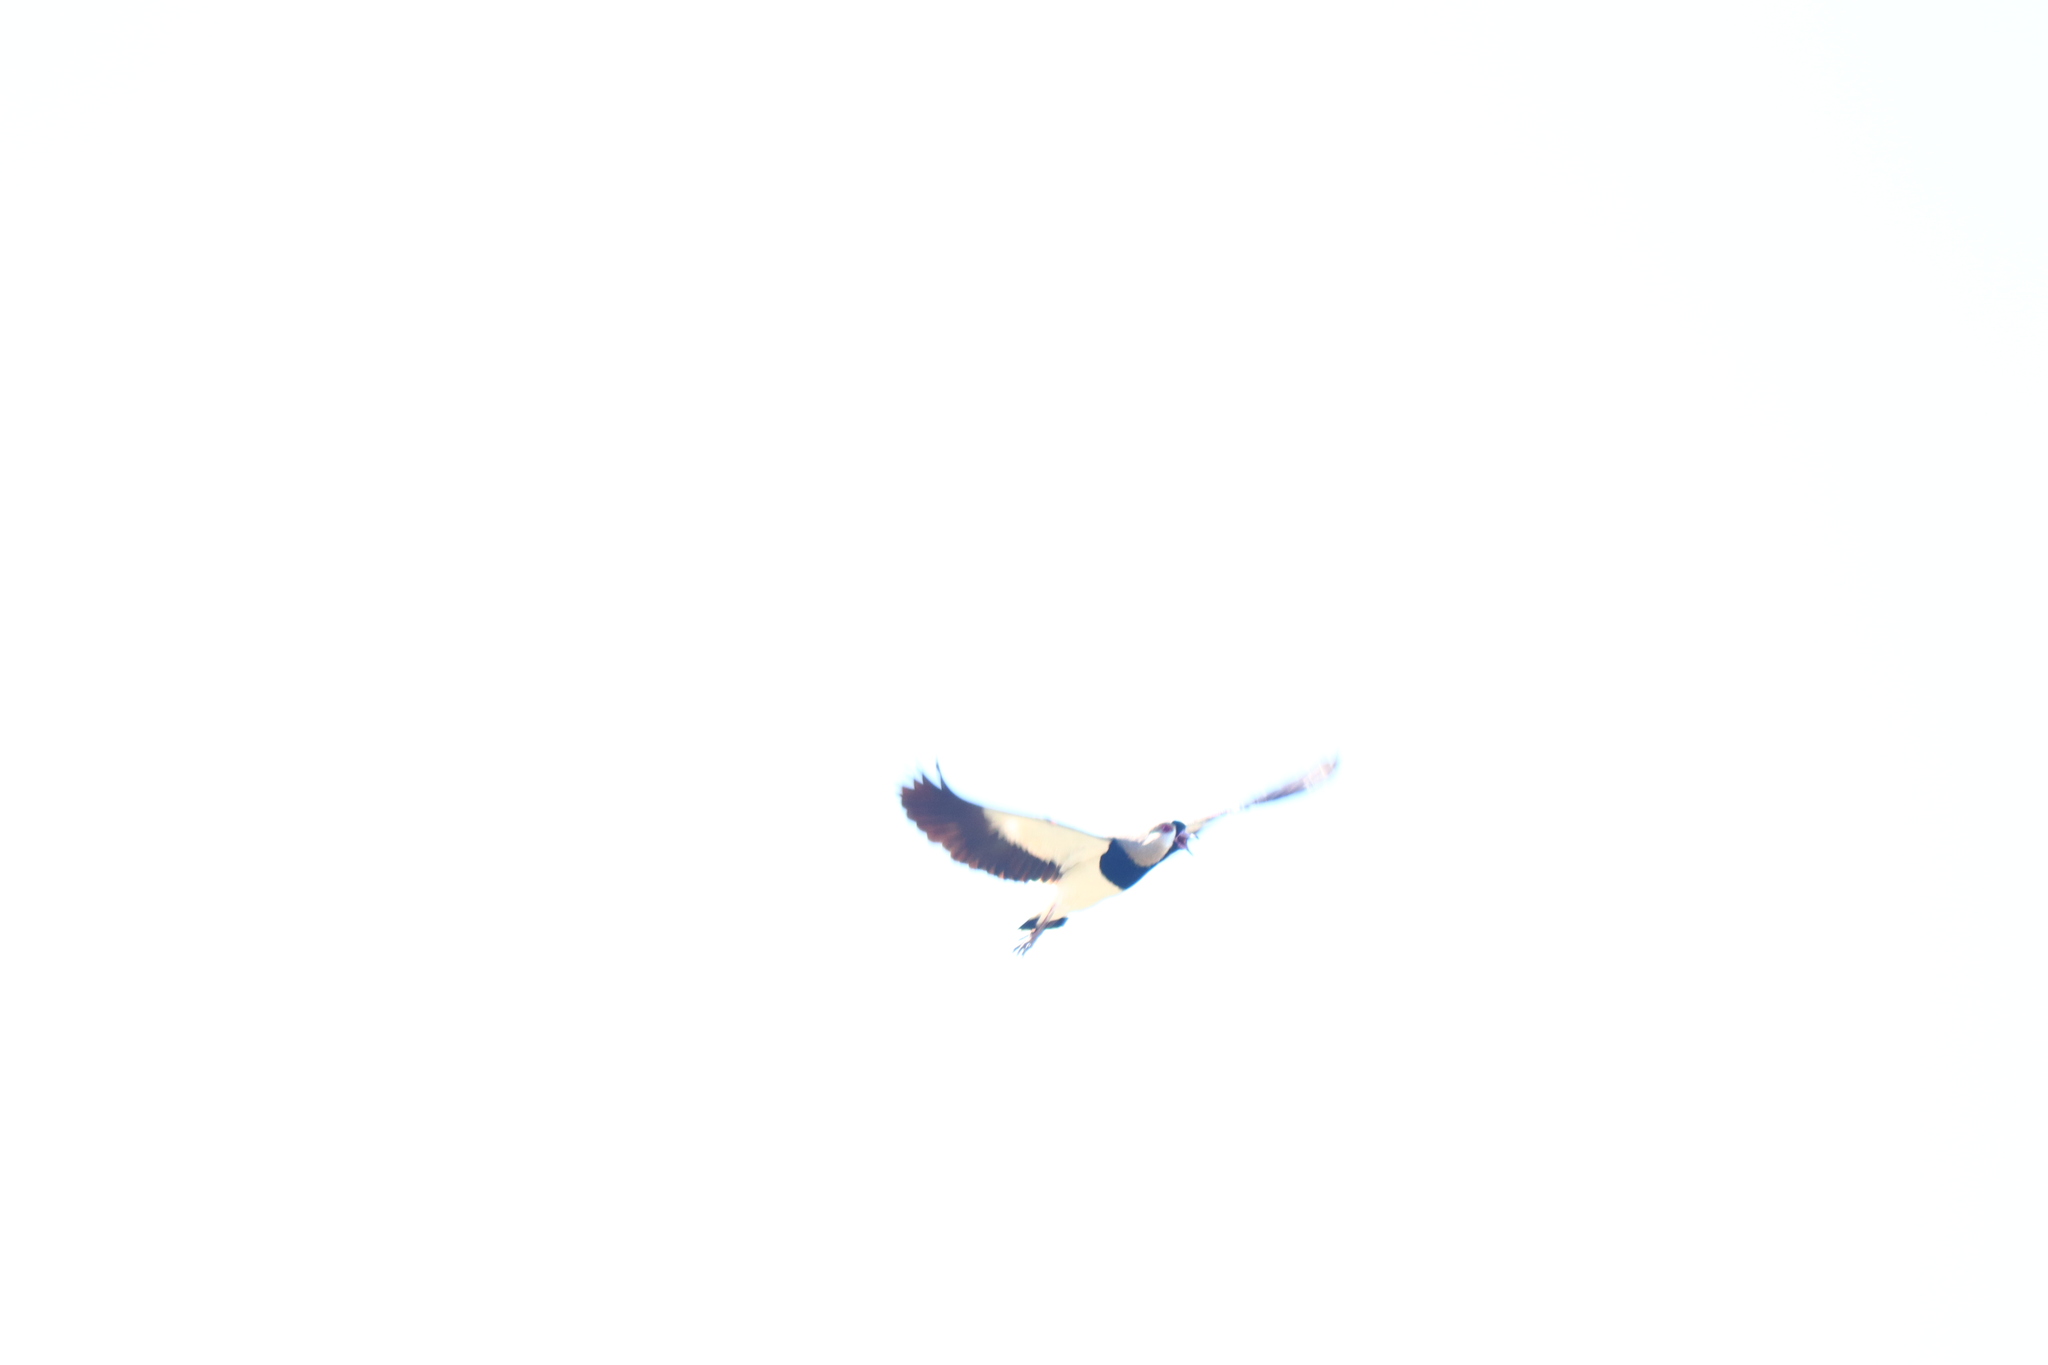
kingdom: Animalia
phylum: Chordata
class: Aves
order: Charadriiformes
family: Charadriidae
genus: Vanellus
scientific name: Vanellus chilensis
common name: Southern lapwing
